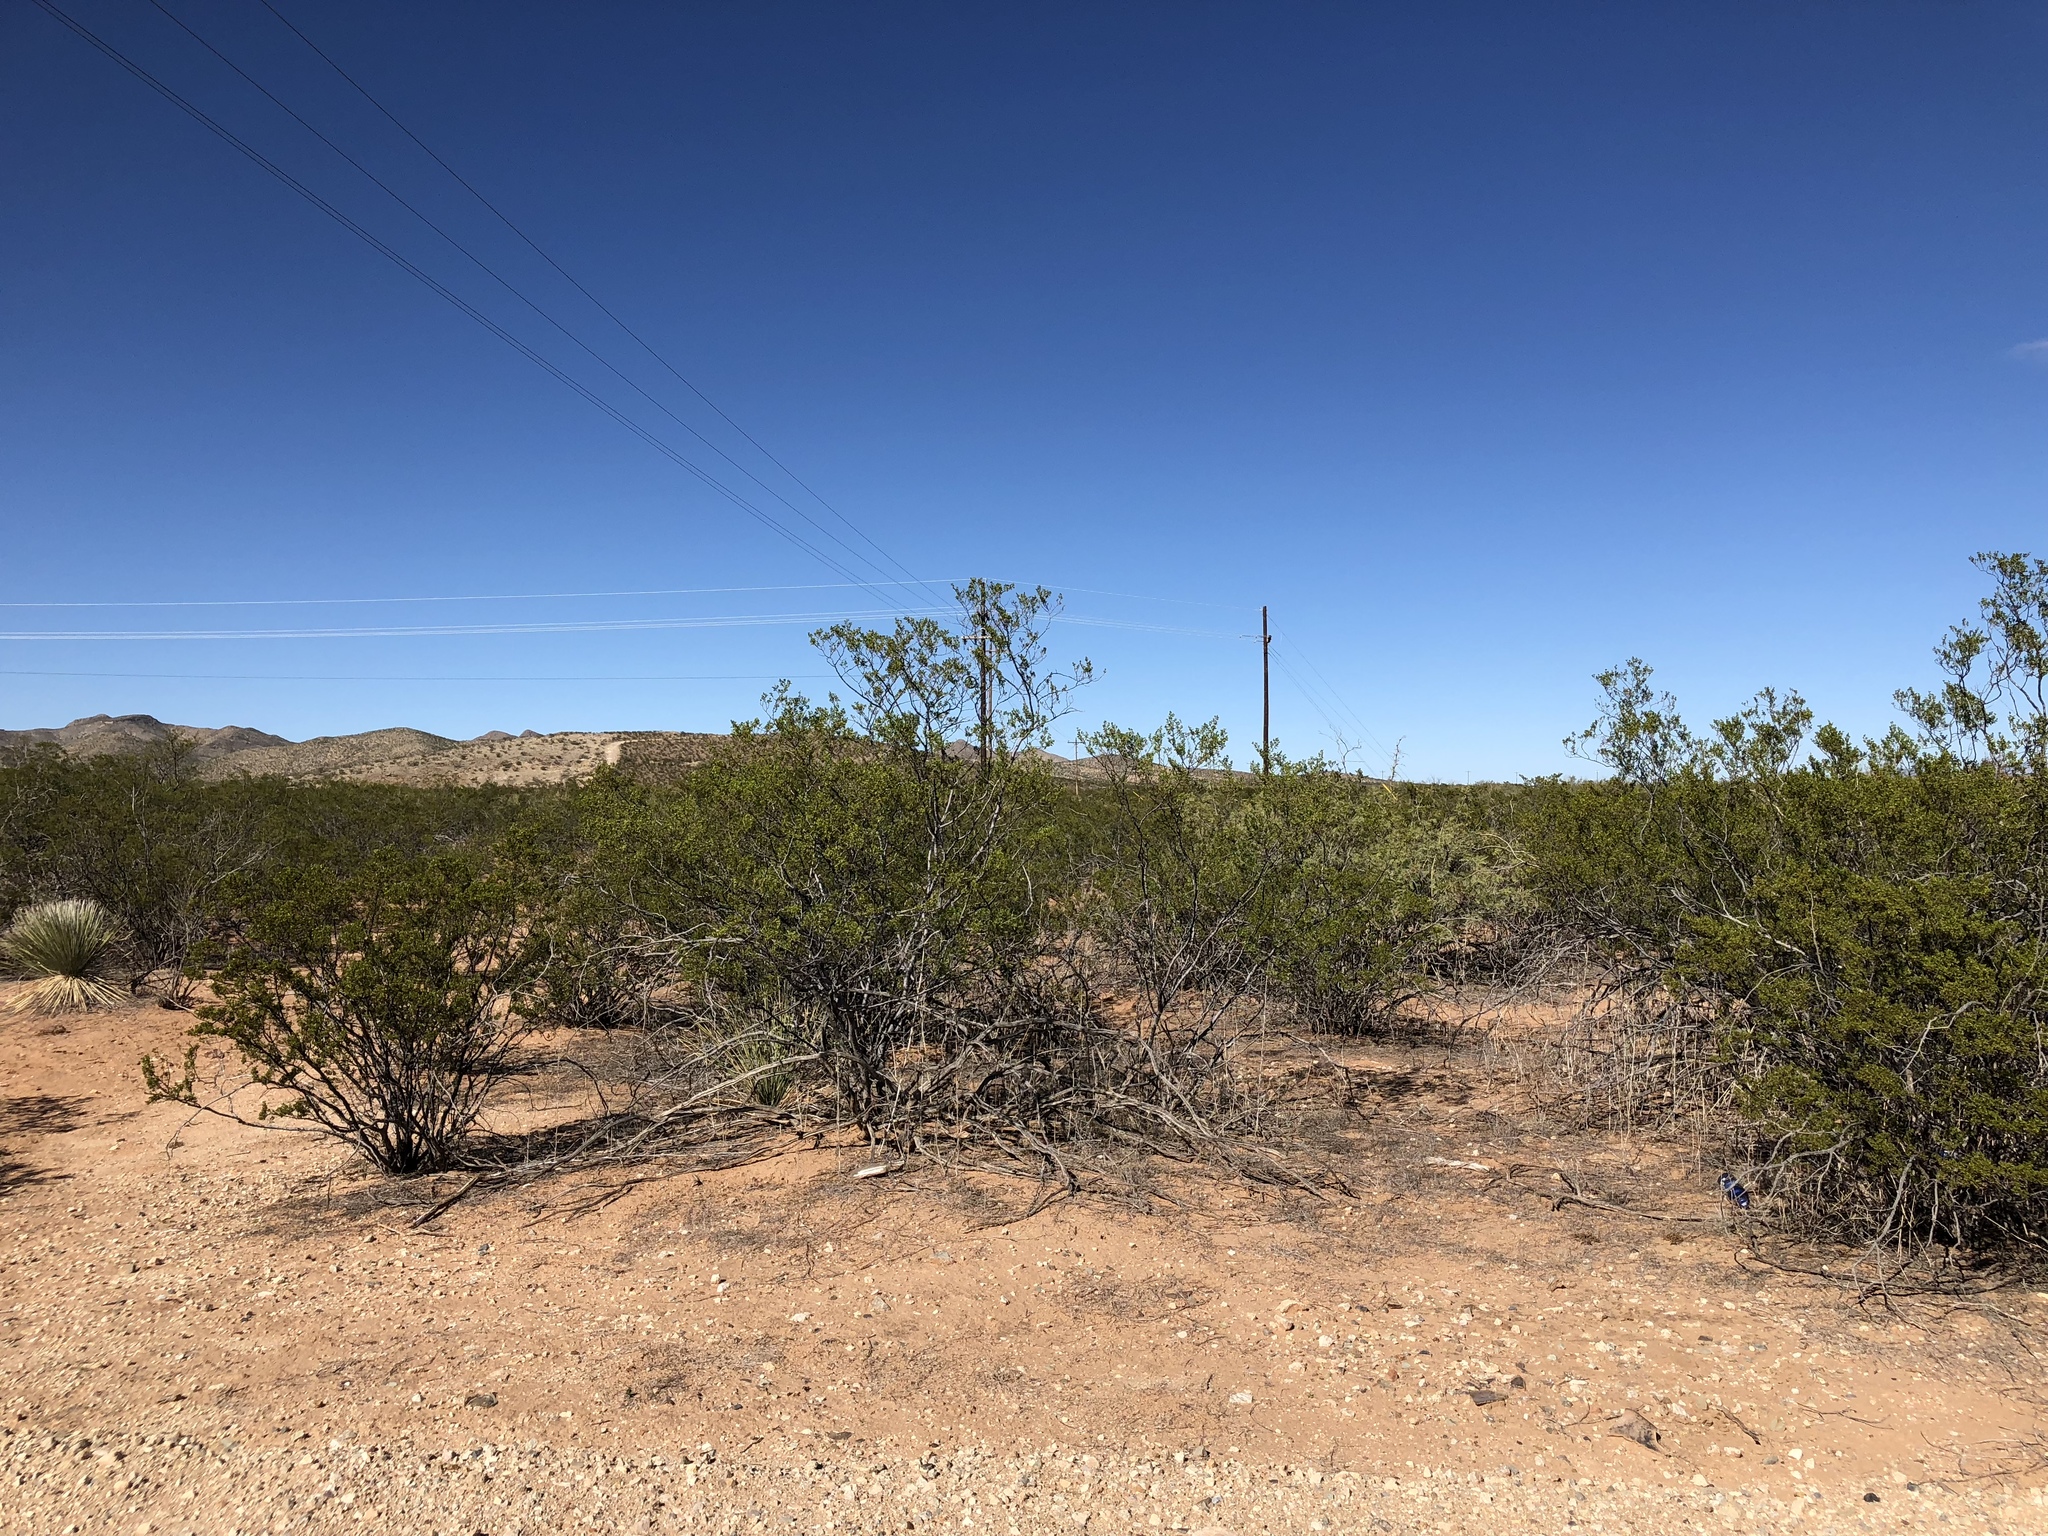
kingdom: Plantae
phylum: Tracheophyta
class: Magnoliopsida
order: Zygophyllales
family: Zygophyllaceae
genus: Larrea
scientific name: Larrea tridentata
